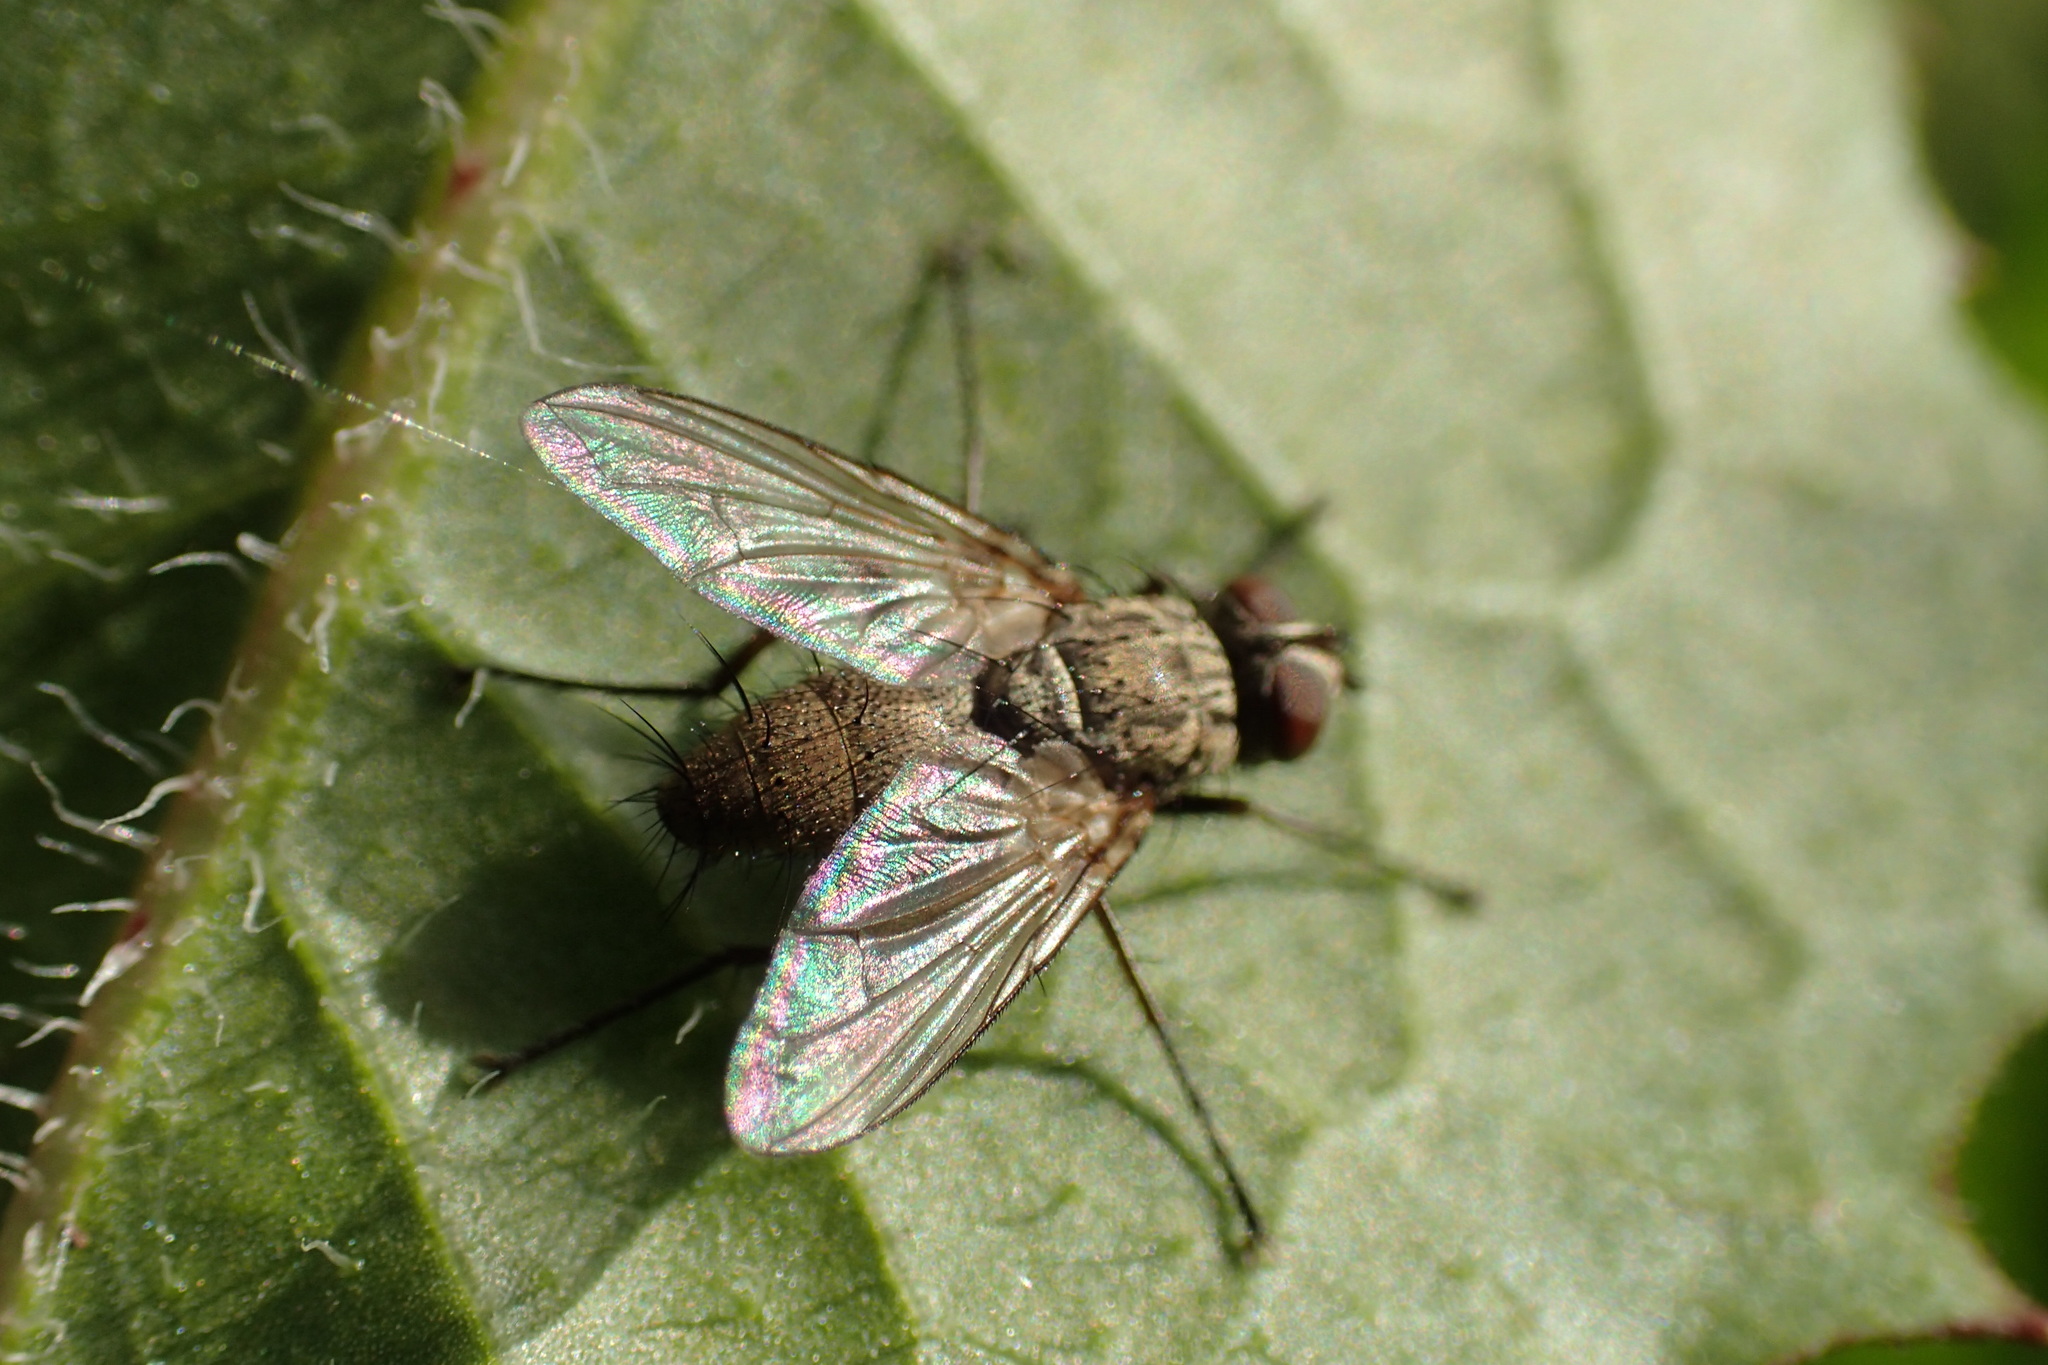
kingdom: Animalia
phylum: Arthropoda
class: Insecta
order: Diptera
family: Tachinidae
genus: Dinera
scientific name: Dinera grisescens
